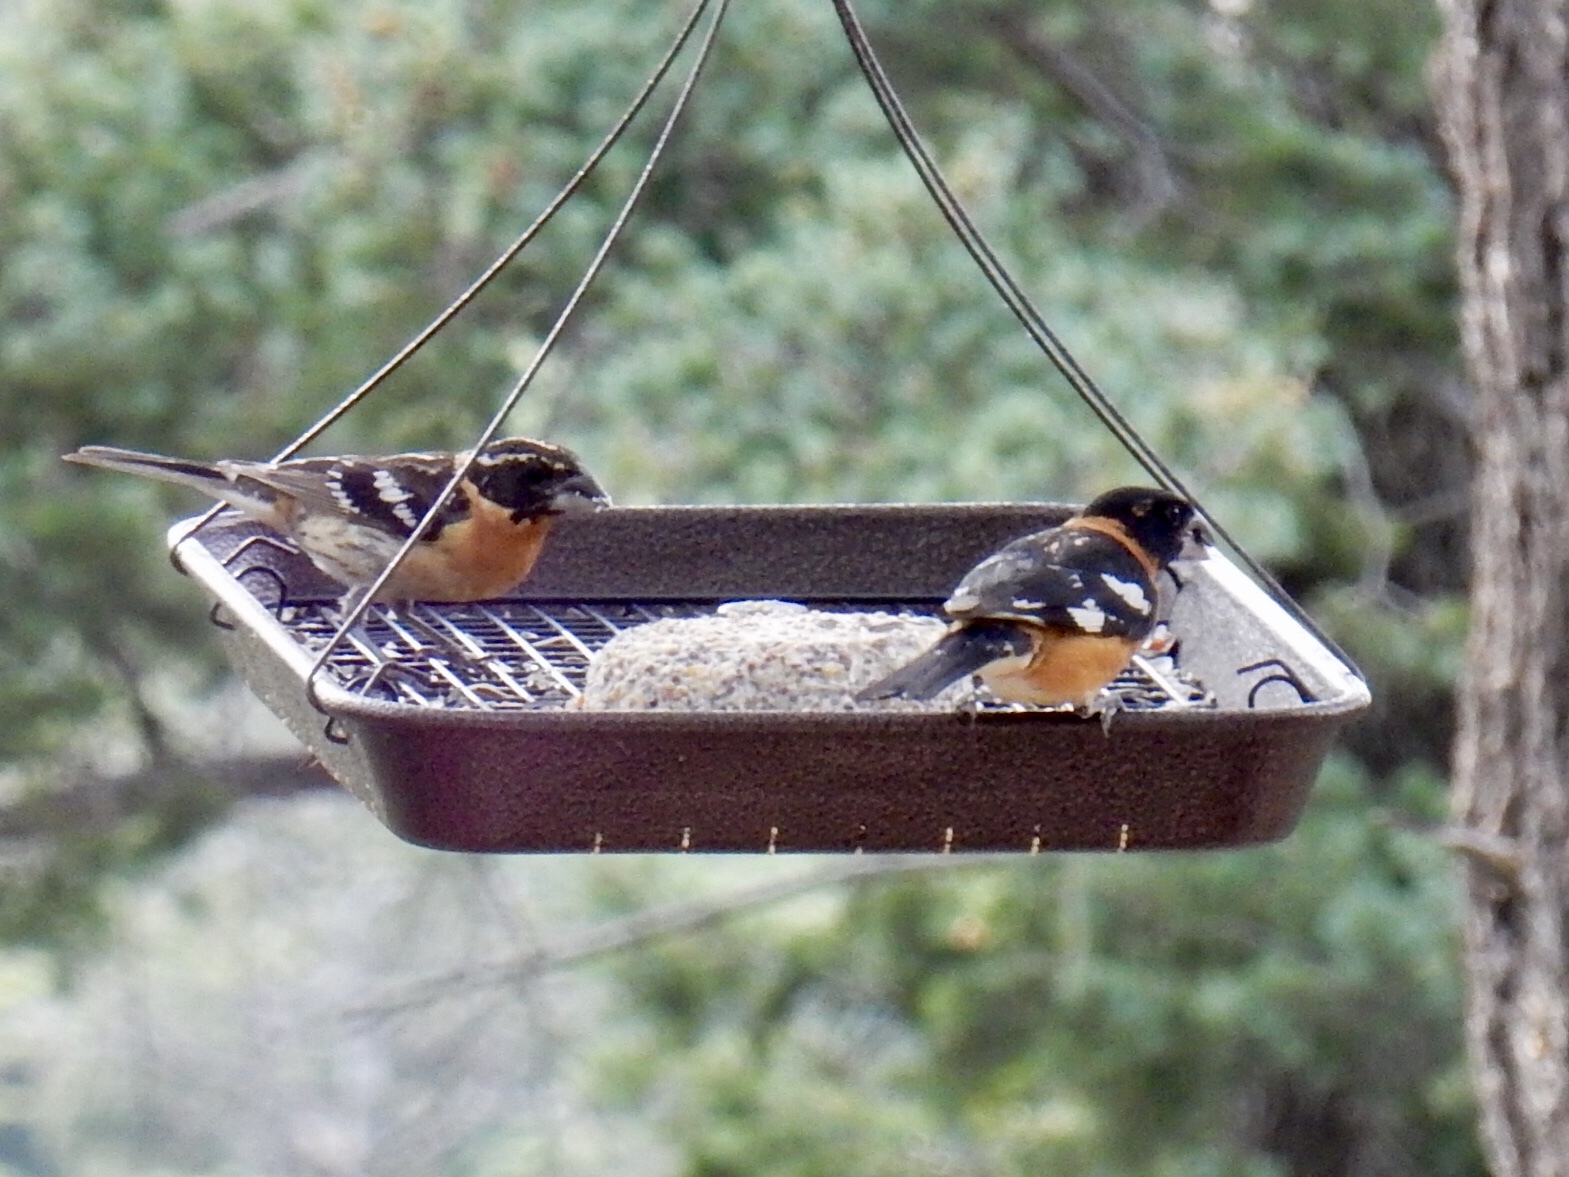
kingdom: Animalia
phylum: Chordata
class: Aves
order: Passeriformes
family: Cardinalidae
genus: Pheucticus
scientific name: Pheucticus melanocephalus
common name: Black-headed grosbeak
